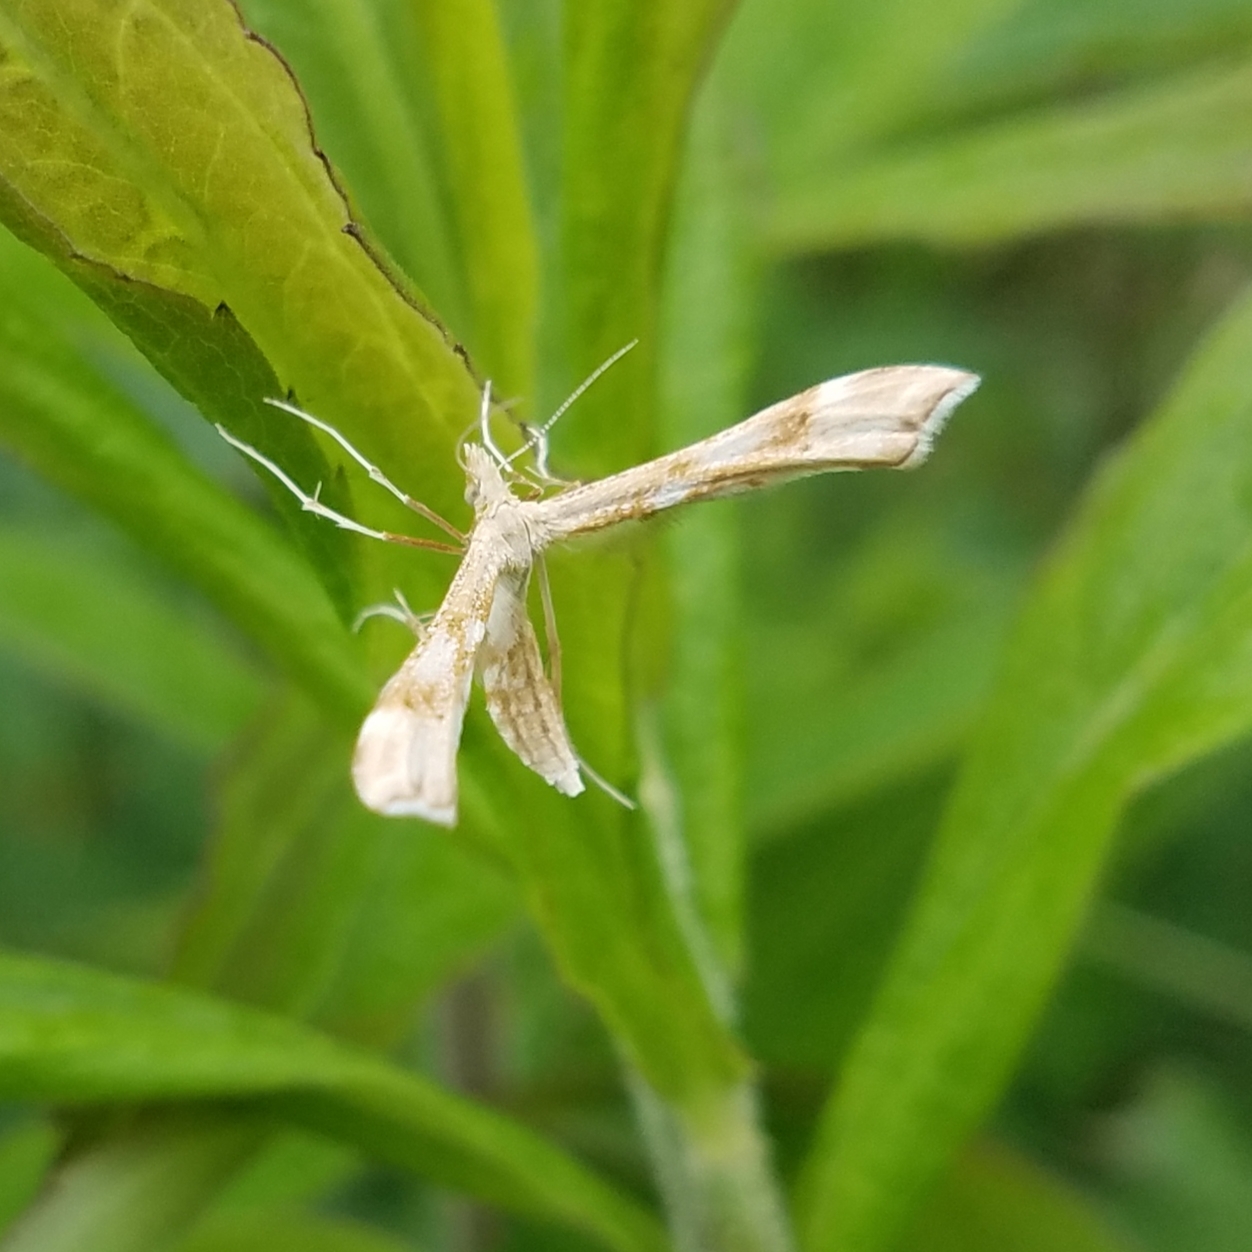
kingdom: Animalia
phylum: Arthropoda
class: Insecta
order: Lepidoptera
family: Pterophoridae
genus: Gillmeria
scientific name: Gillmeria pallidactyla
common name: Yarrow plume
